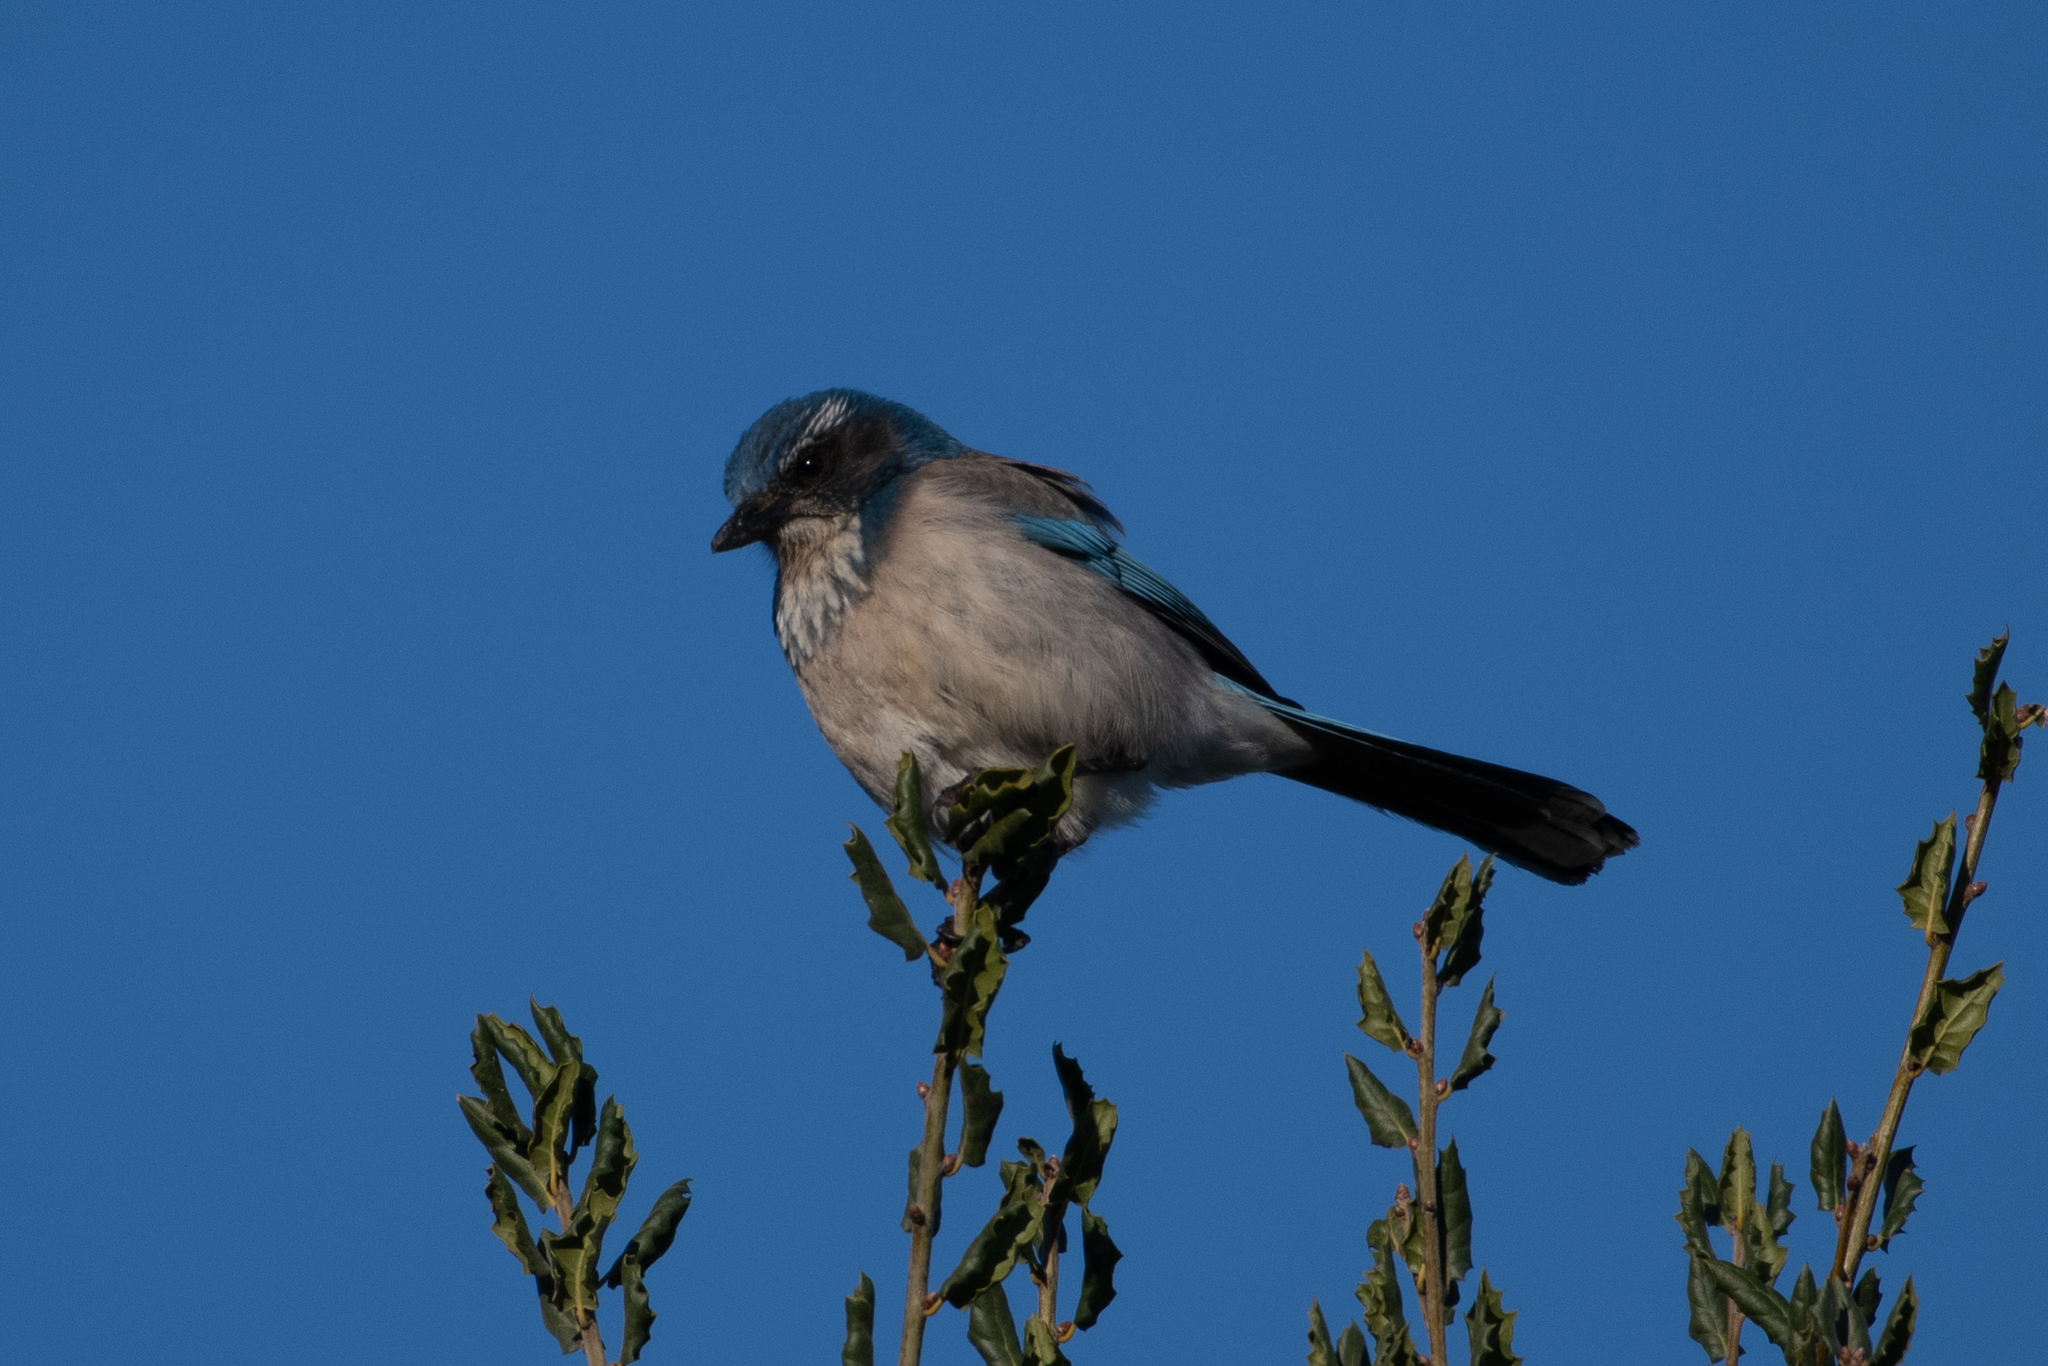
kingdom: Animalia
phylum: Chordata
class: Aves
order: Passeriformes
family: Corvidae
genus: Aphelocoma
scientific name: Aphelocoma californica
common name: California scrub-jay
